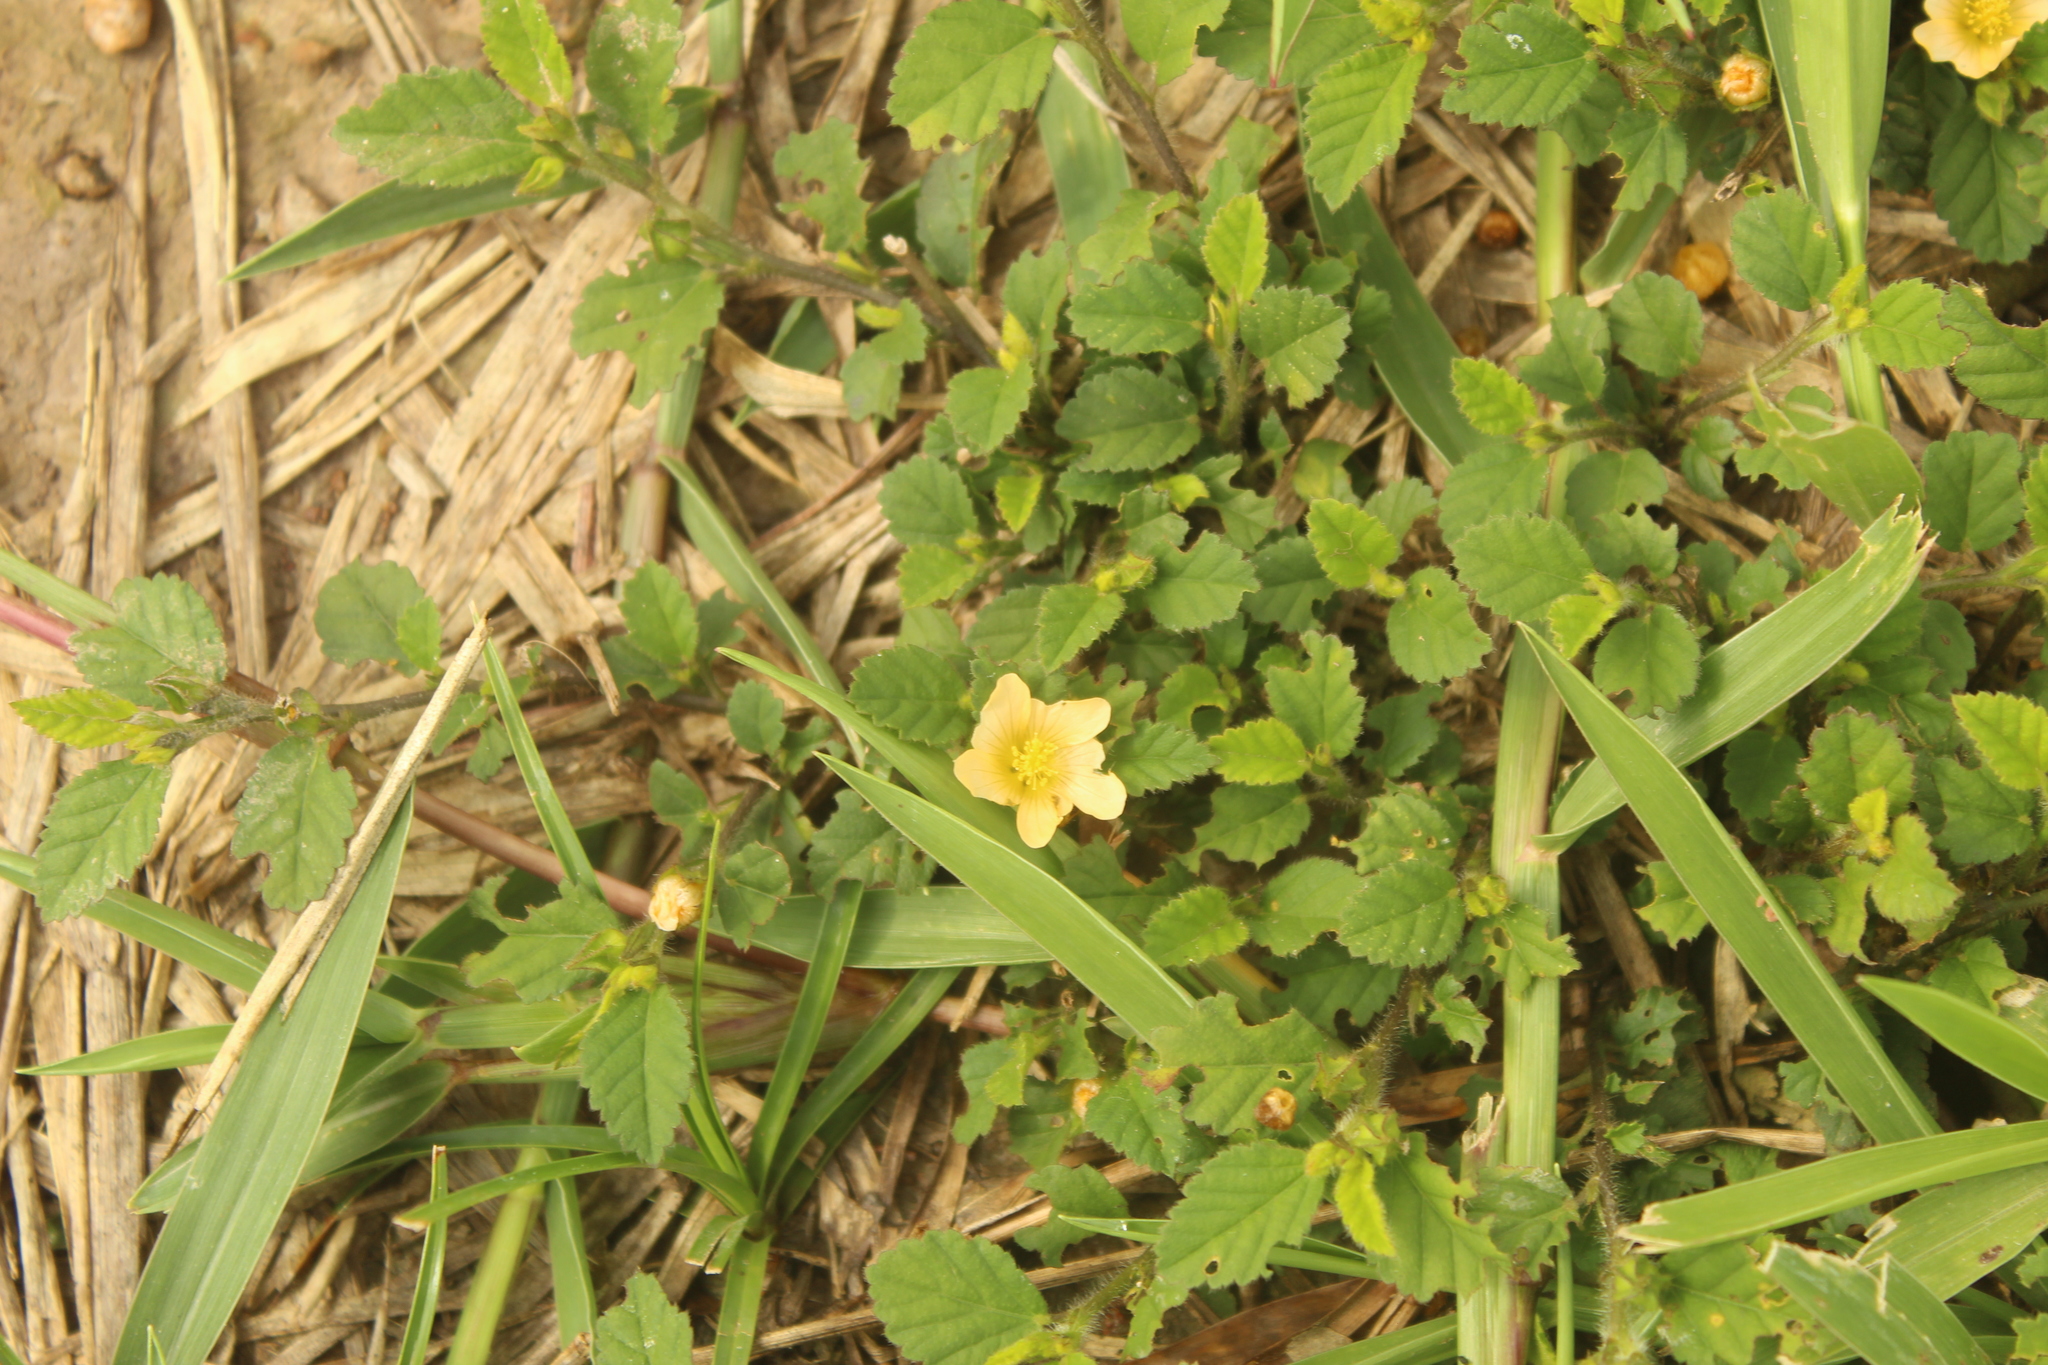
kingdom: Plantae
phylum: Tracheophyta
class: Magnoliopsida
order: Malvales
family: Malvaceae
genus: Sida
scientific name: Sida abutilifolia
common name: Spreading fanpetals
